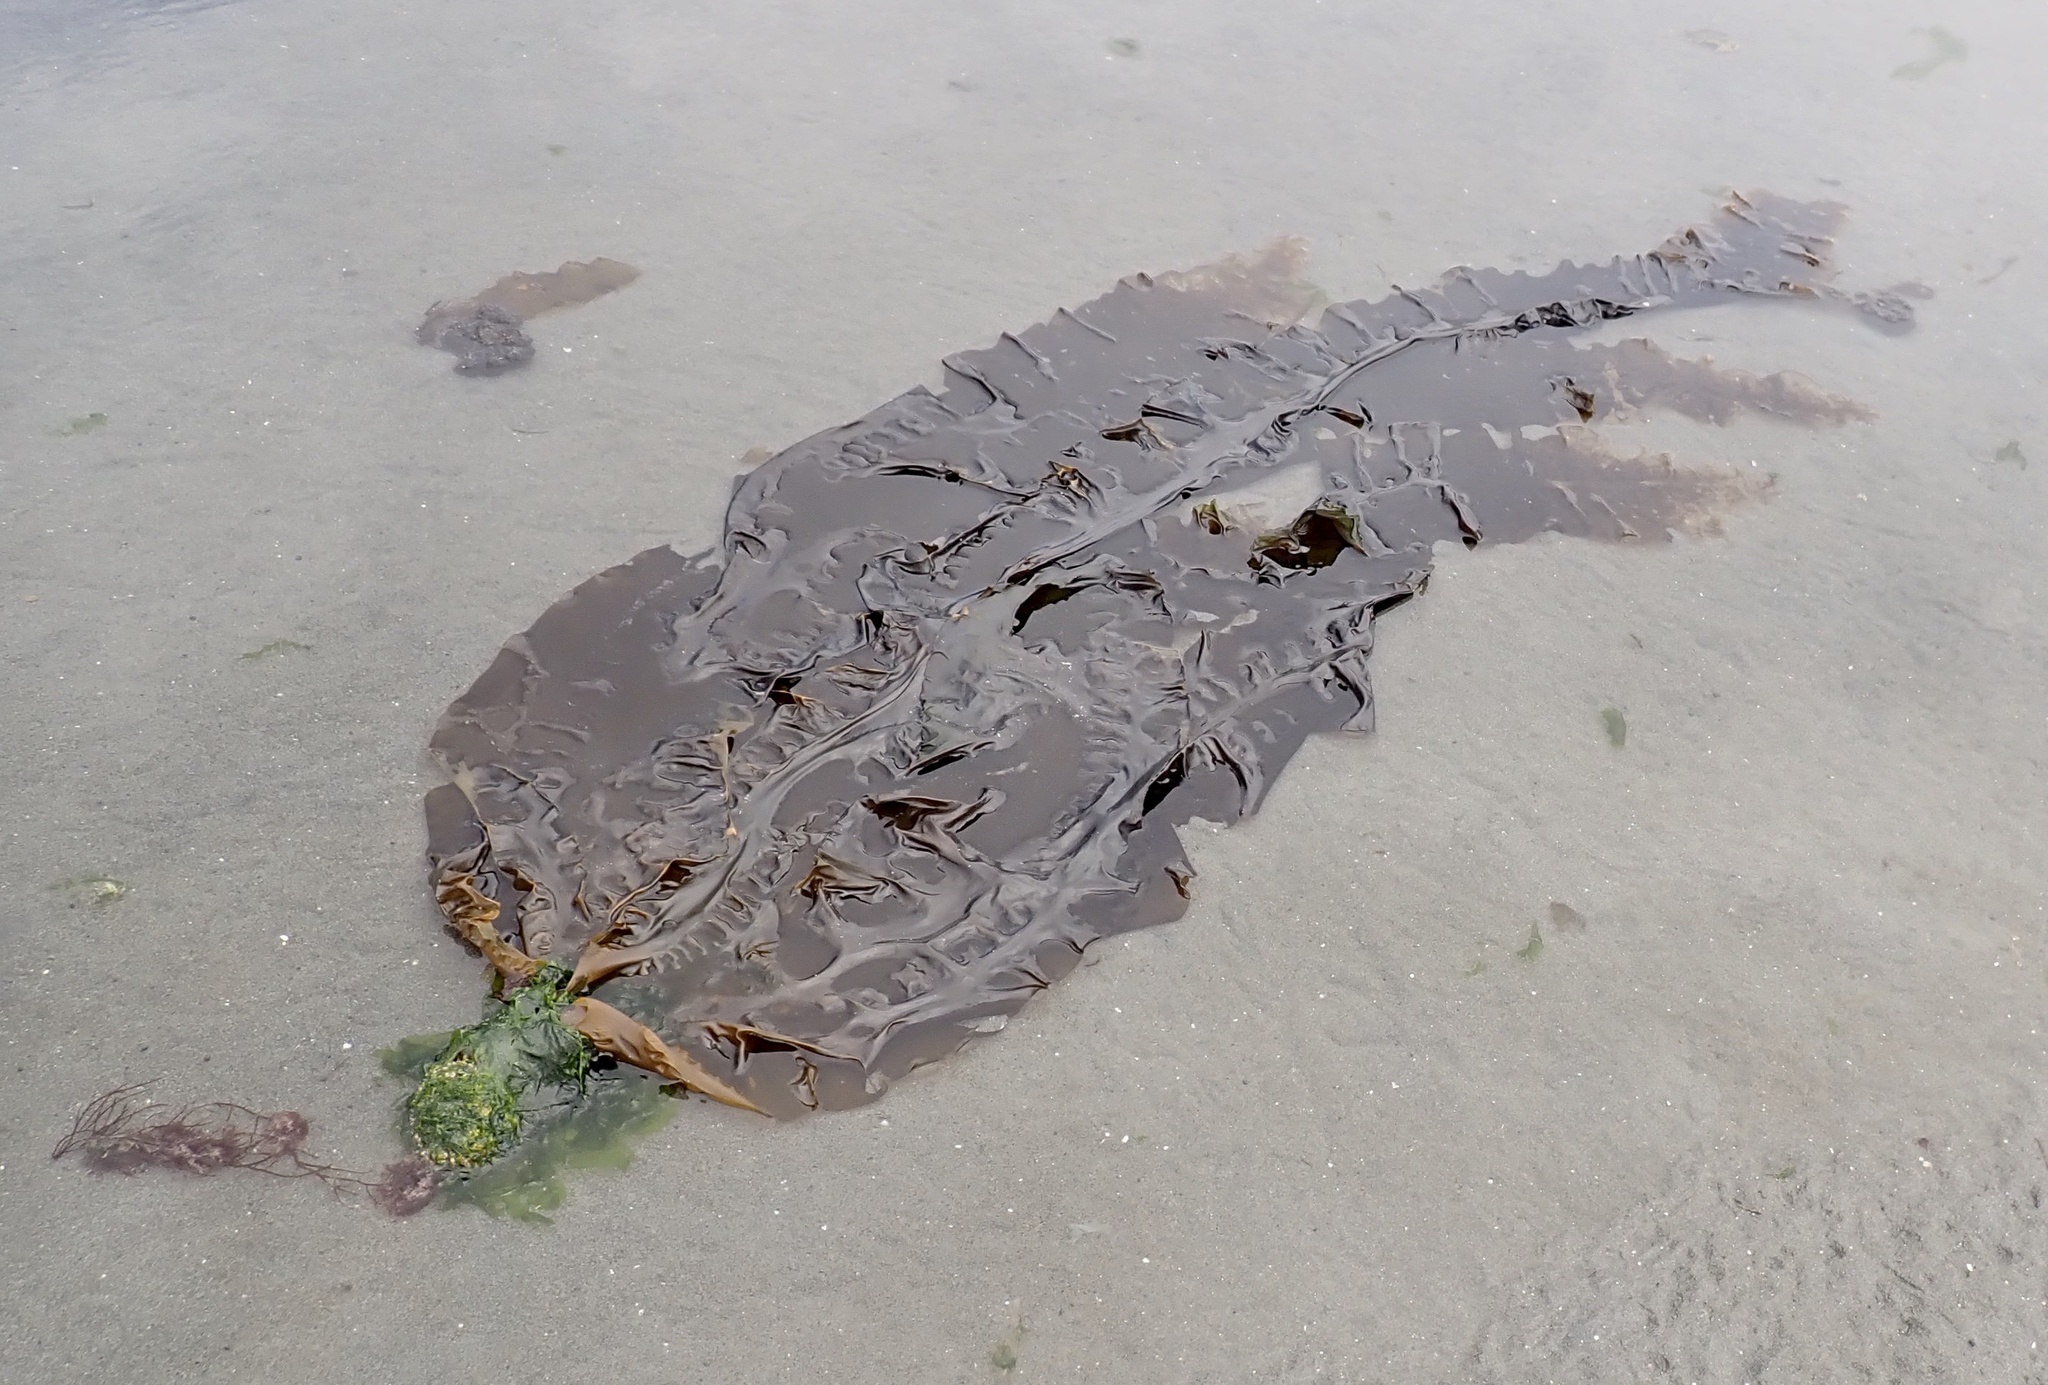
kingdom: Chromista
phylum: Ochrophyta
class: Phaeophyceae
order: Laminariales
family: Laminariaceae
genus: Saccharina
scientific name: Saccharina latissima
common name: Poor man's weather glass
